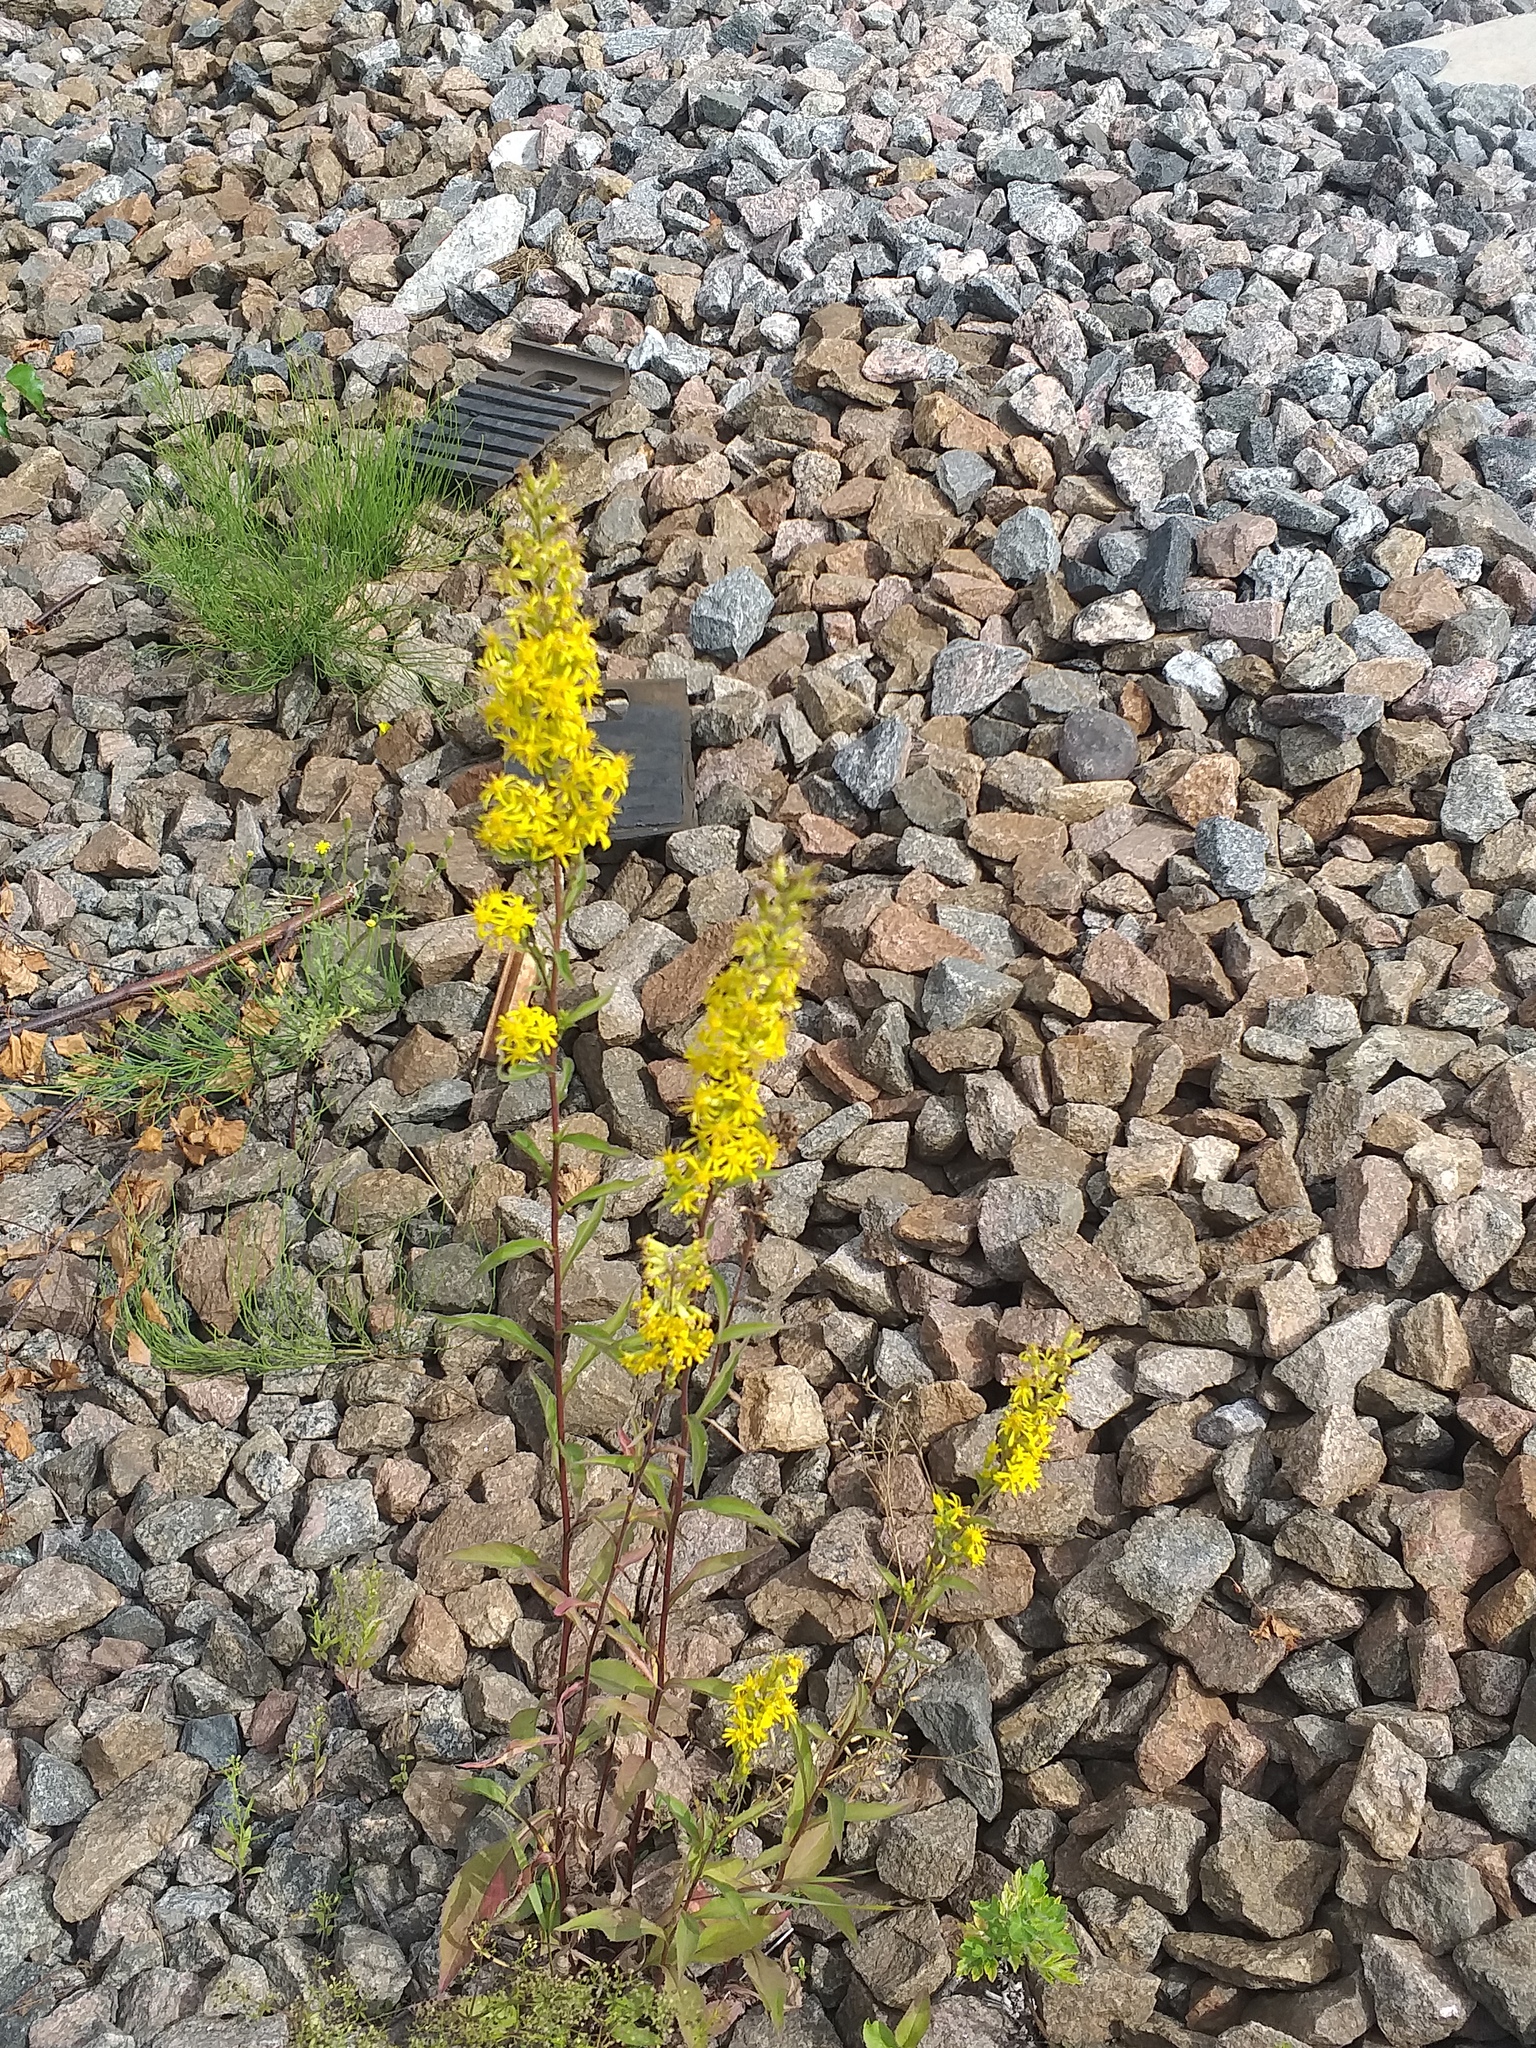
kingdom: Plantae
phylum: Tracheophyta
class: Magnoliopsida
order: Asterales
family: Asteraceae
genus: Solidago
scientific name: Solidago virgaurea
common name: Goldenrod
